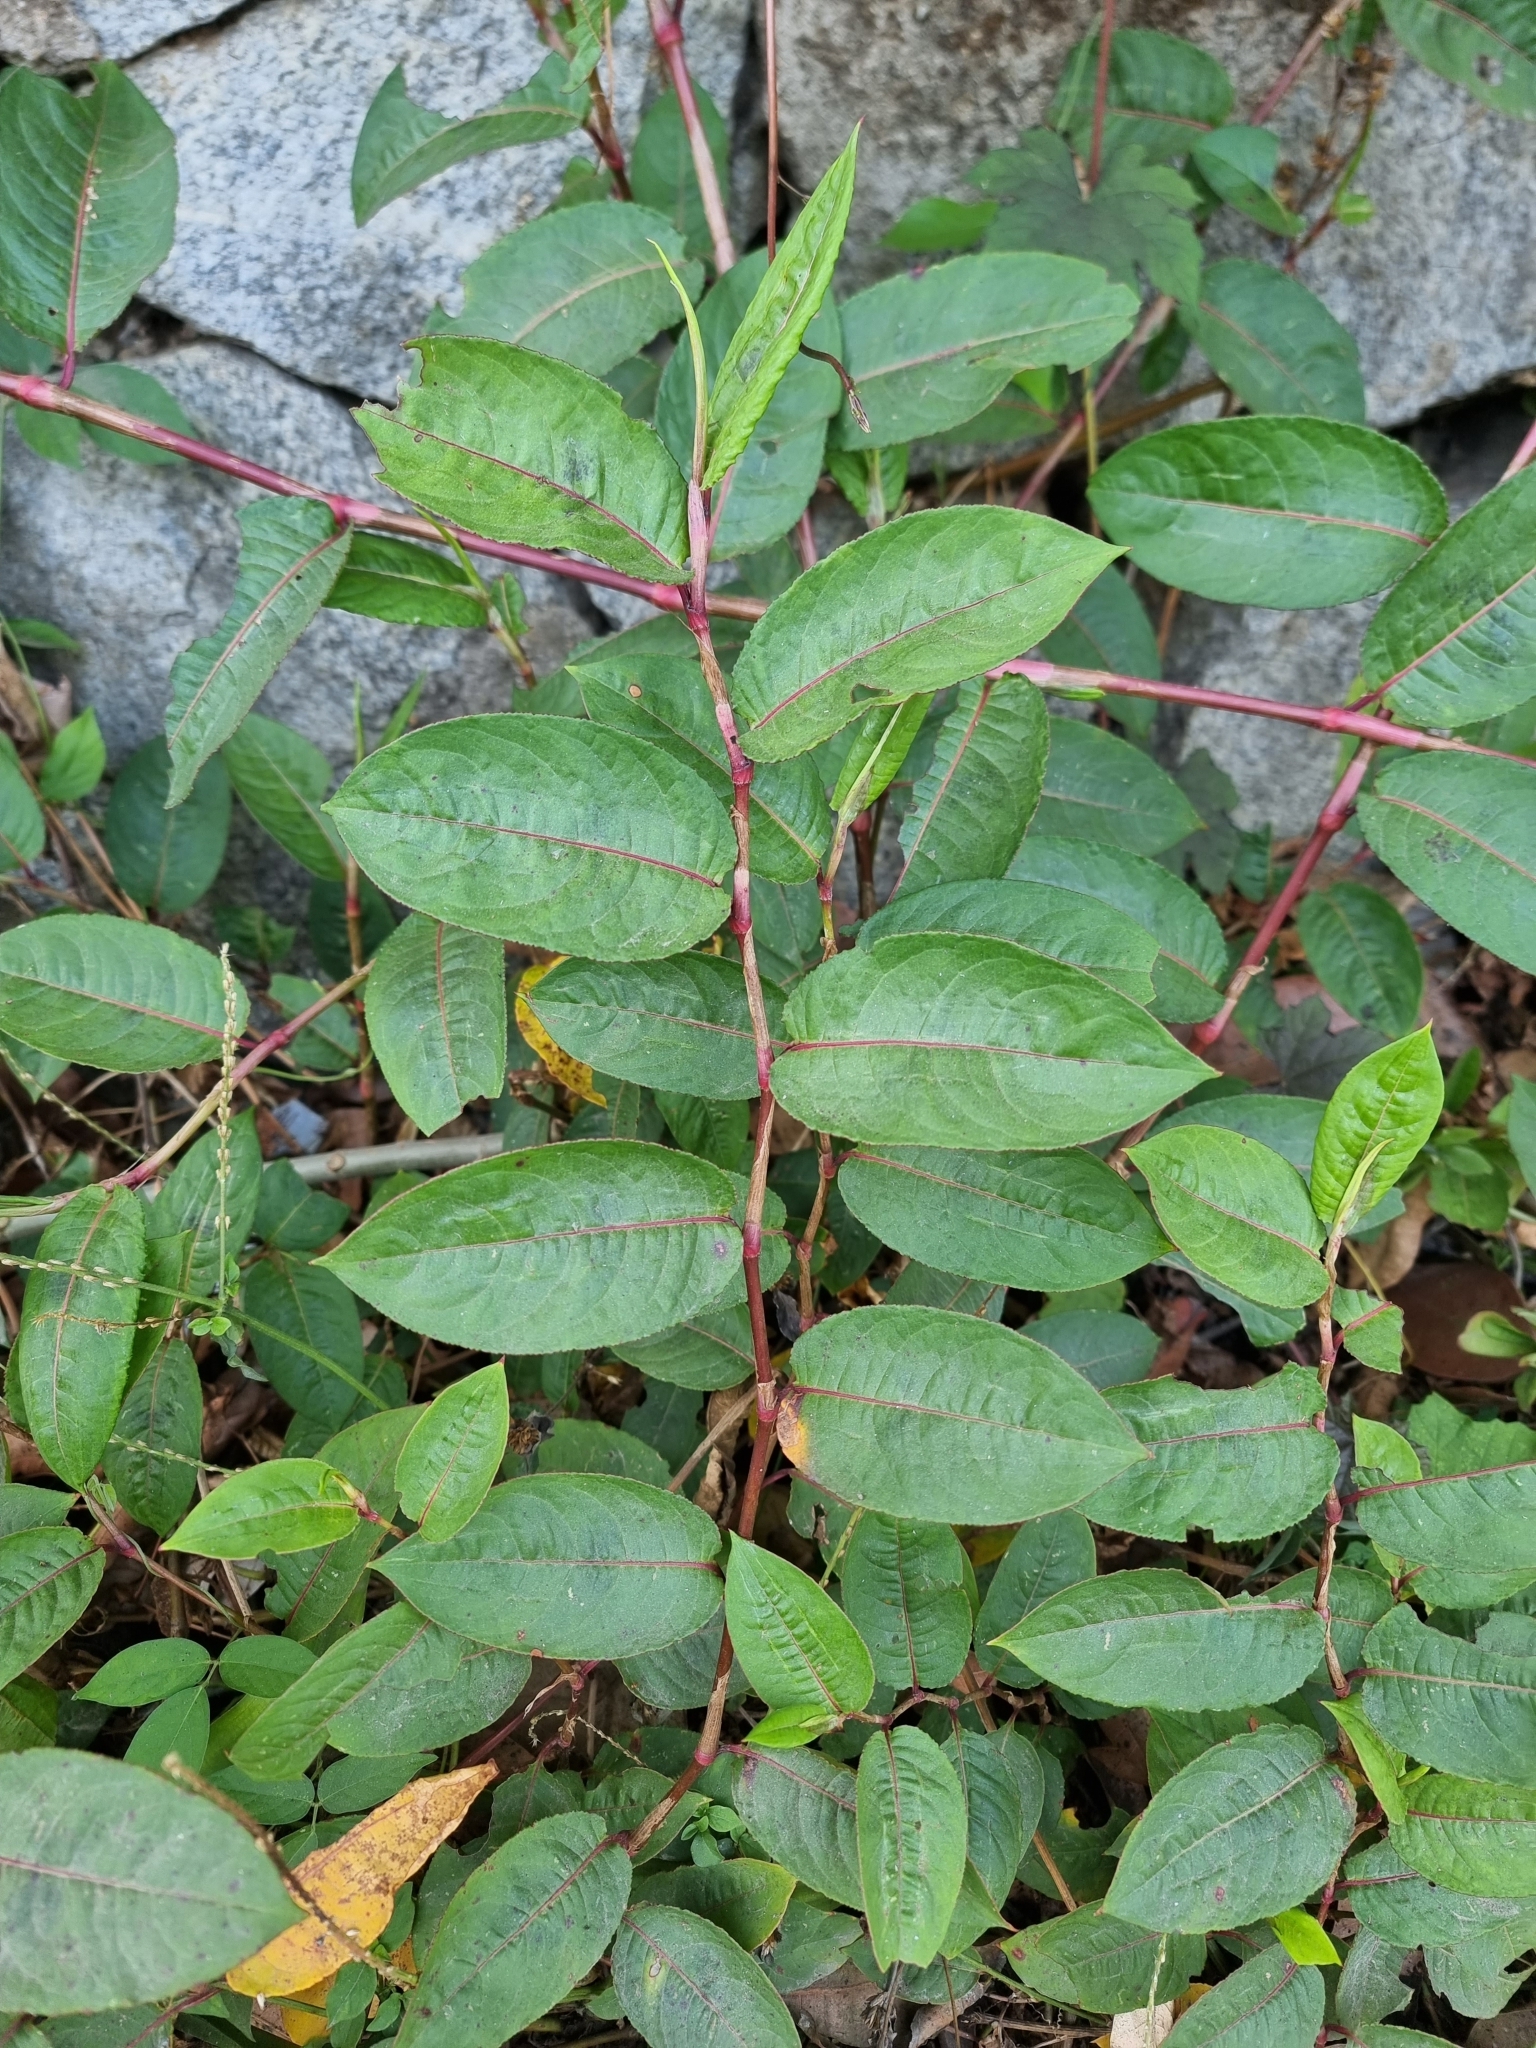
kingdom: Plantae
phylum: Tracheophyta
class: Magnoliopsida
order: Caryophyllales
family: Polygonaceae
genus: Persicaria
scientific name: Persicaria chinensis
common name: Chinese knotweed
